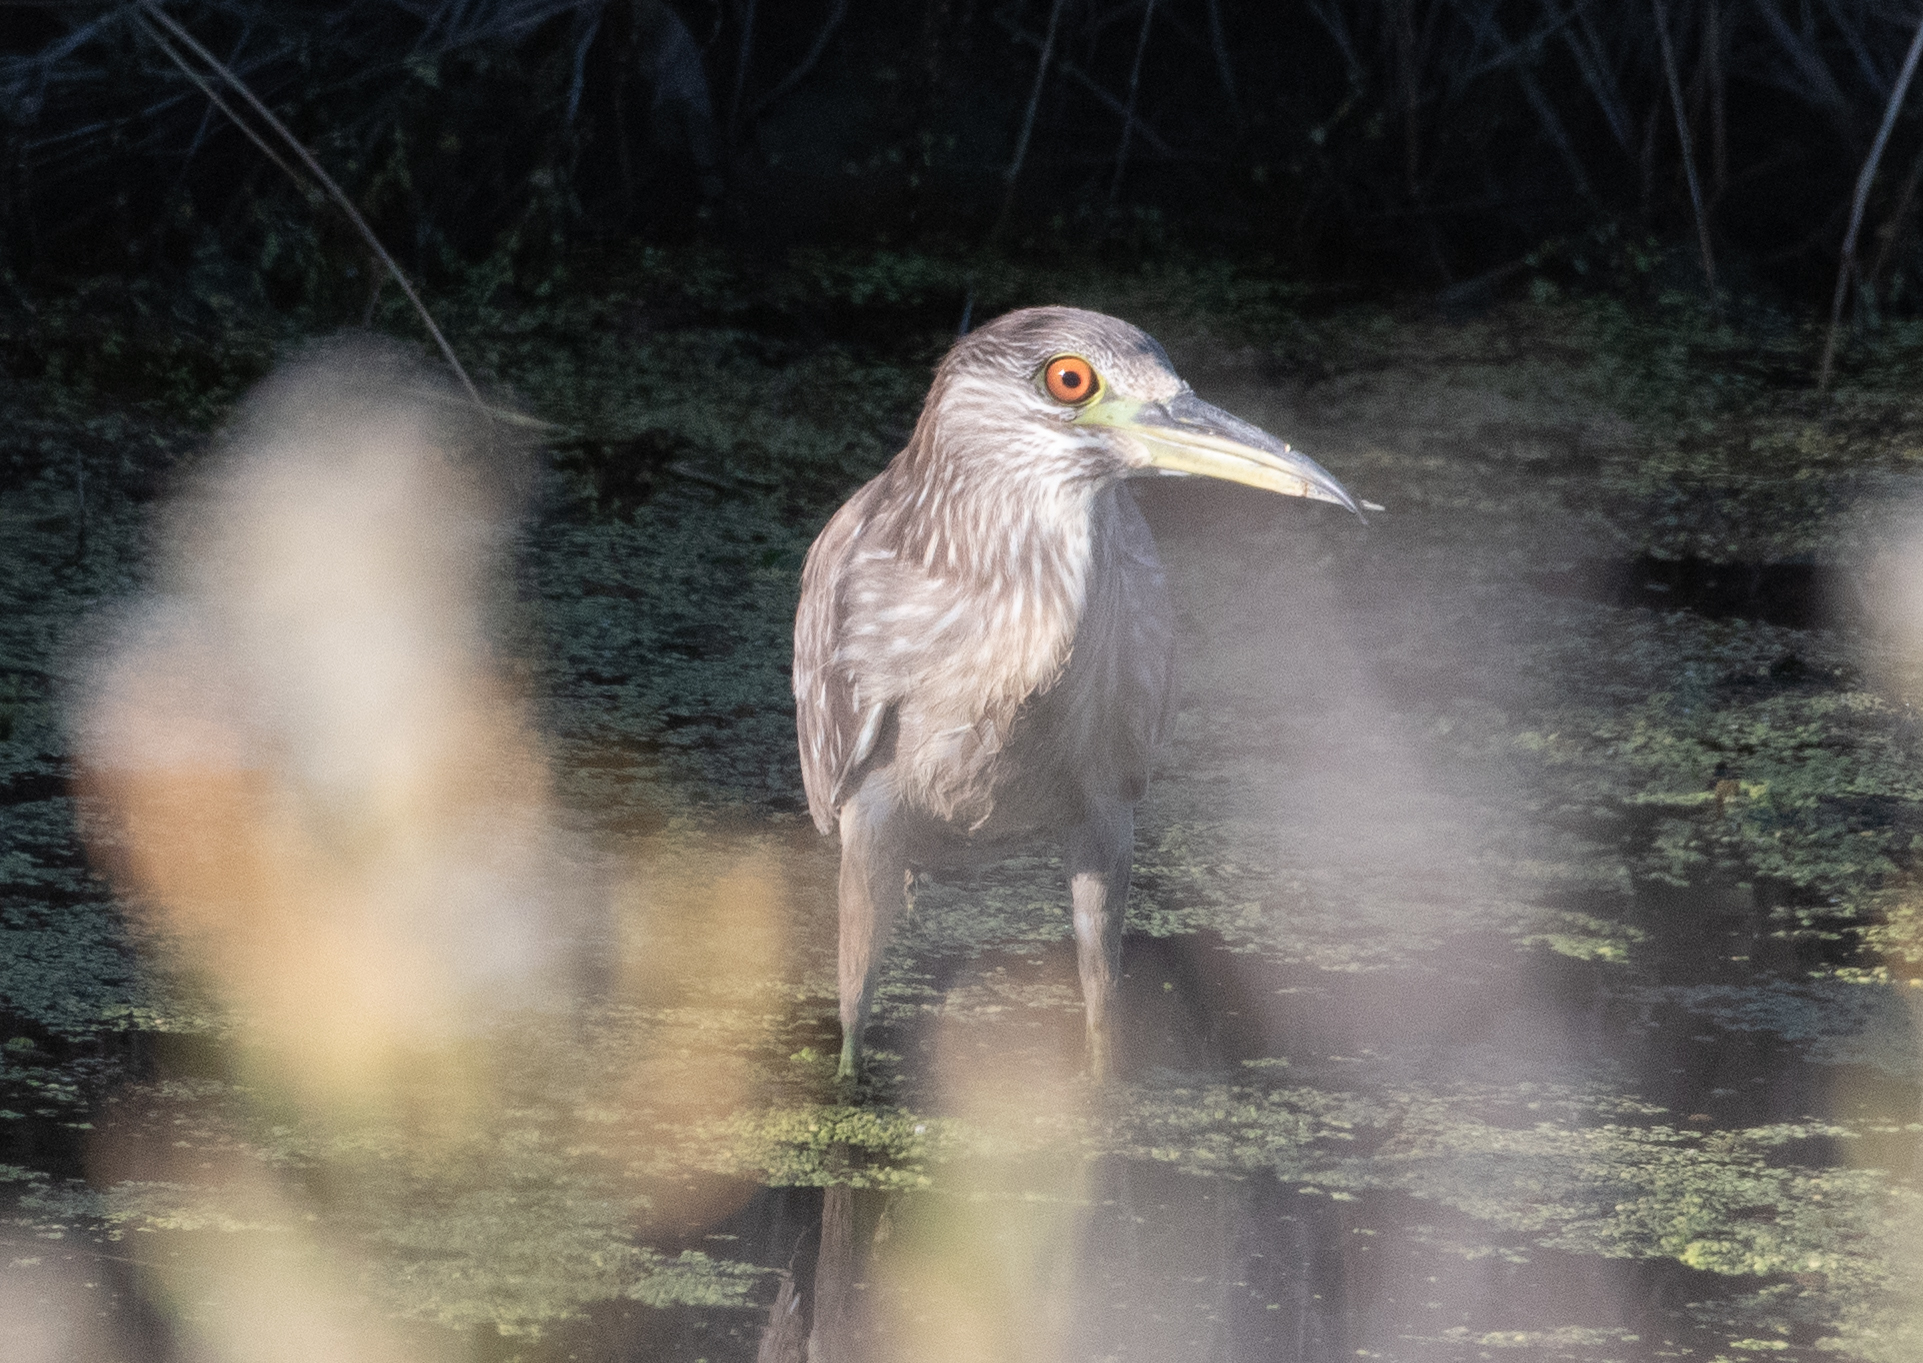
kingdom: Animalia
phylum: Chordata
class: Aves
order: Pelecaniformes
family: Ardeidae
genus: Nycticorax
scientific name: Nycticorax nycticorax
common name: Black-crowned night heron
